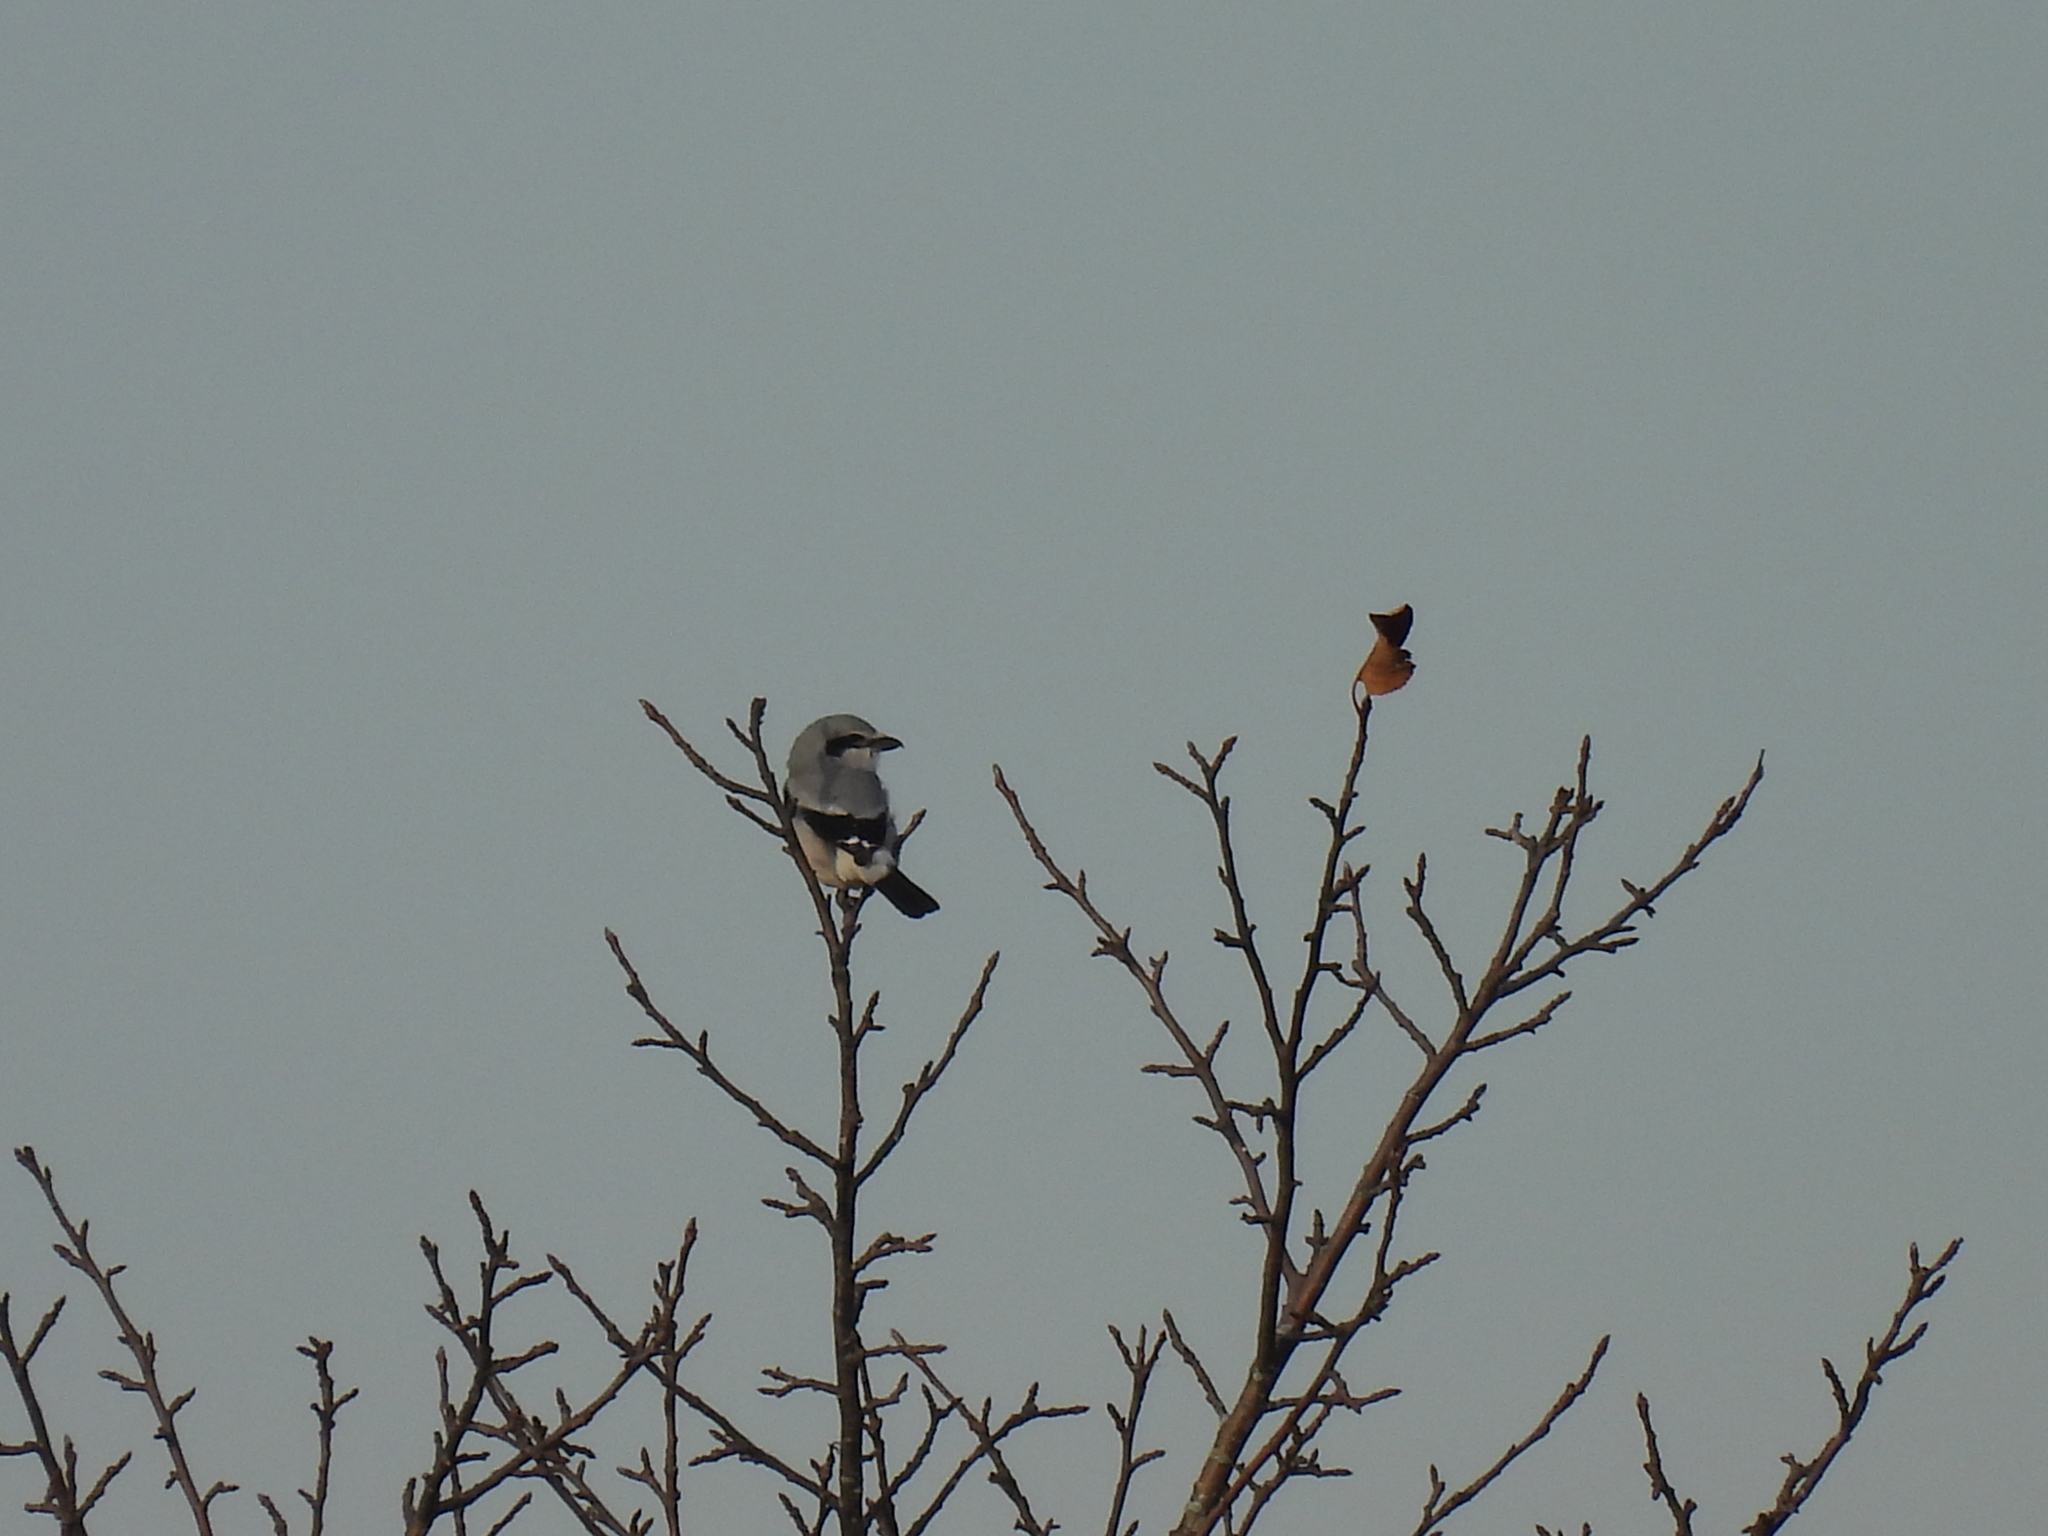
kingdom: Animalia
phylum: Chordata
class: Aves
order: Passeriformes
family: Laniidae
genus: Lanius
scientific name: Lanius borealis
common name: Northern shrike
